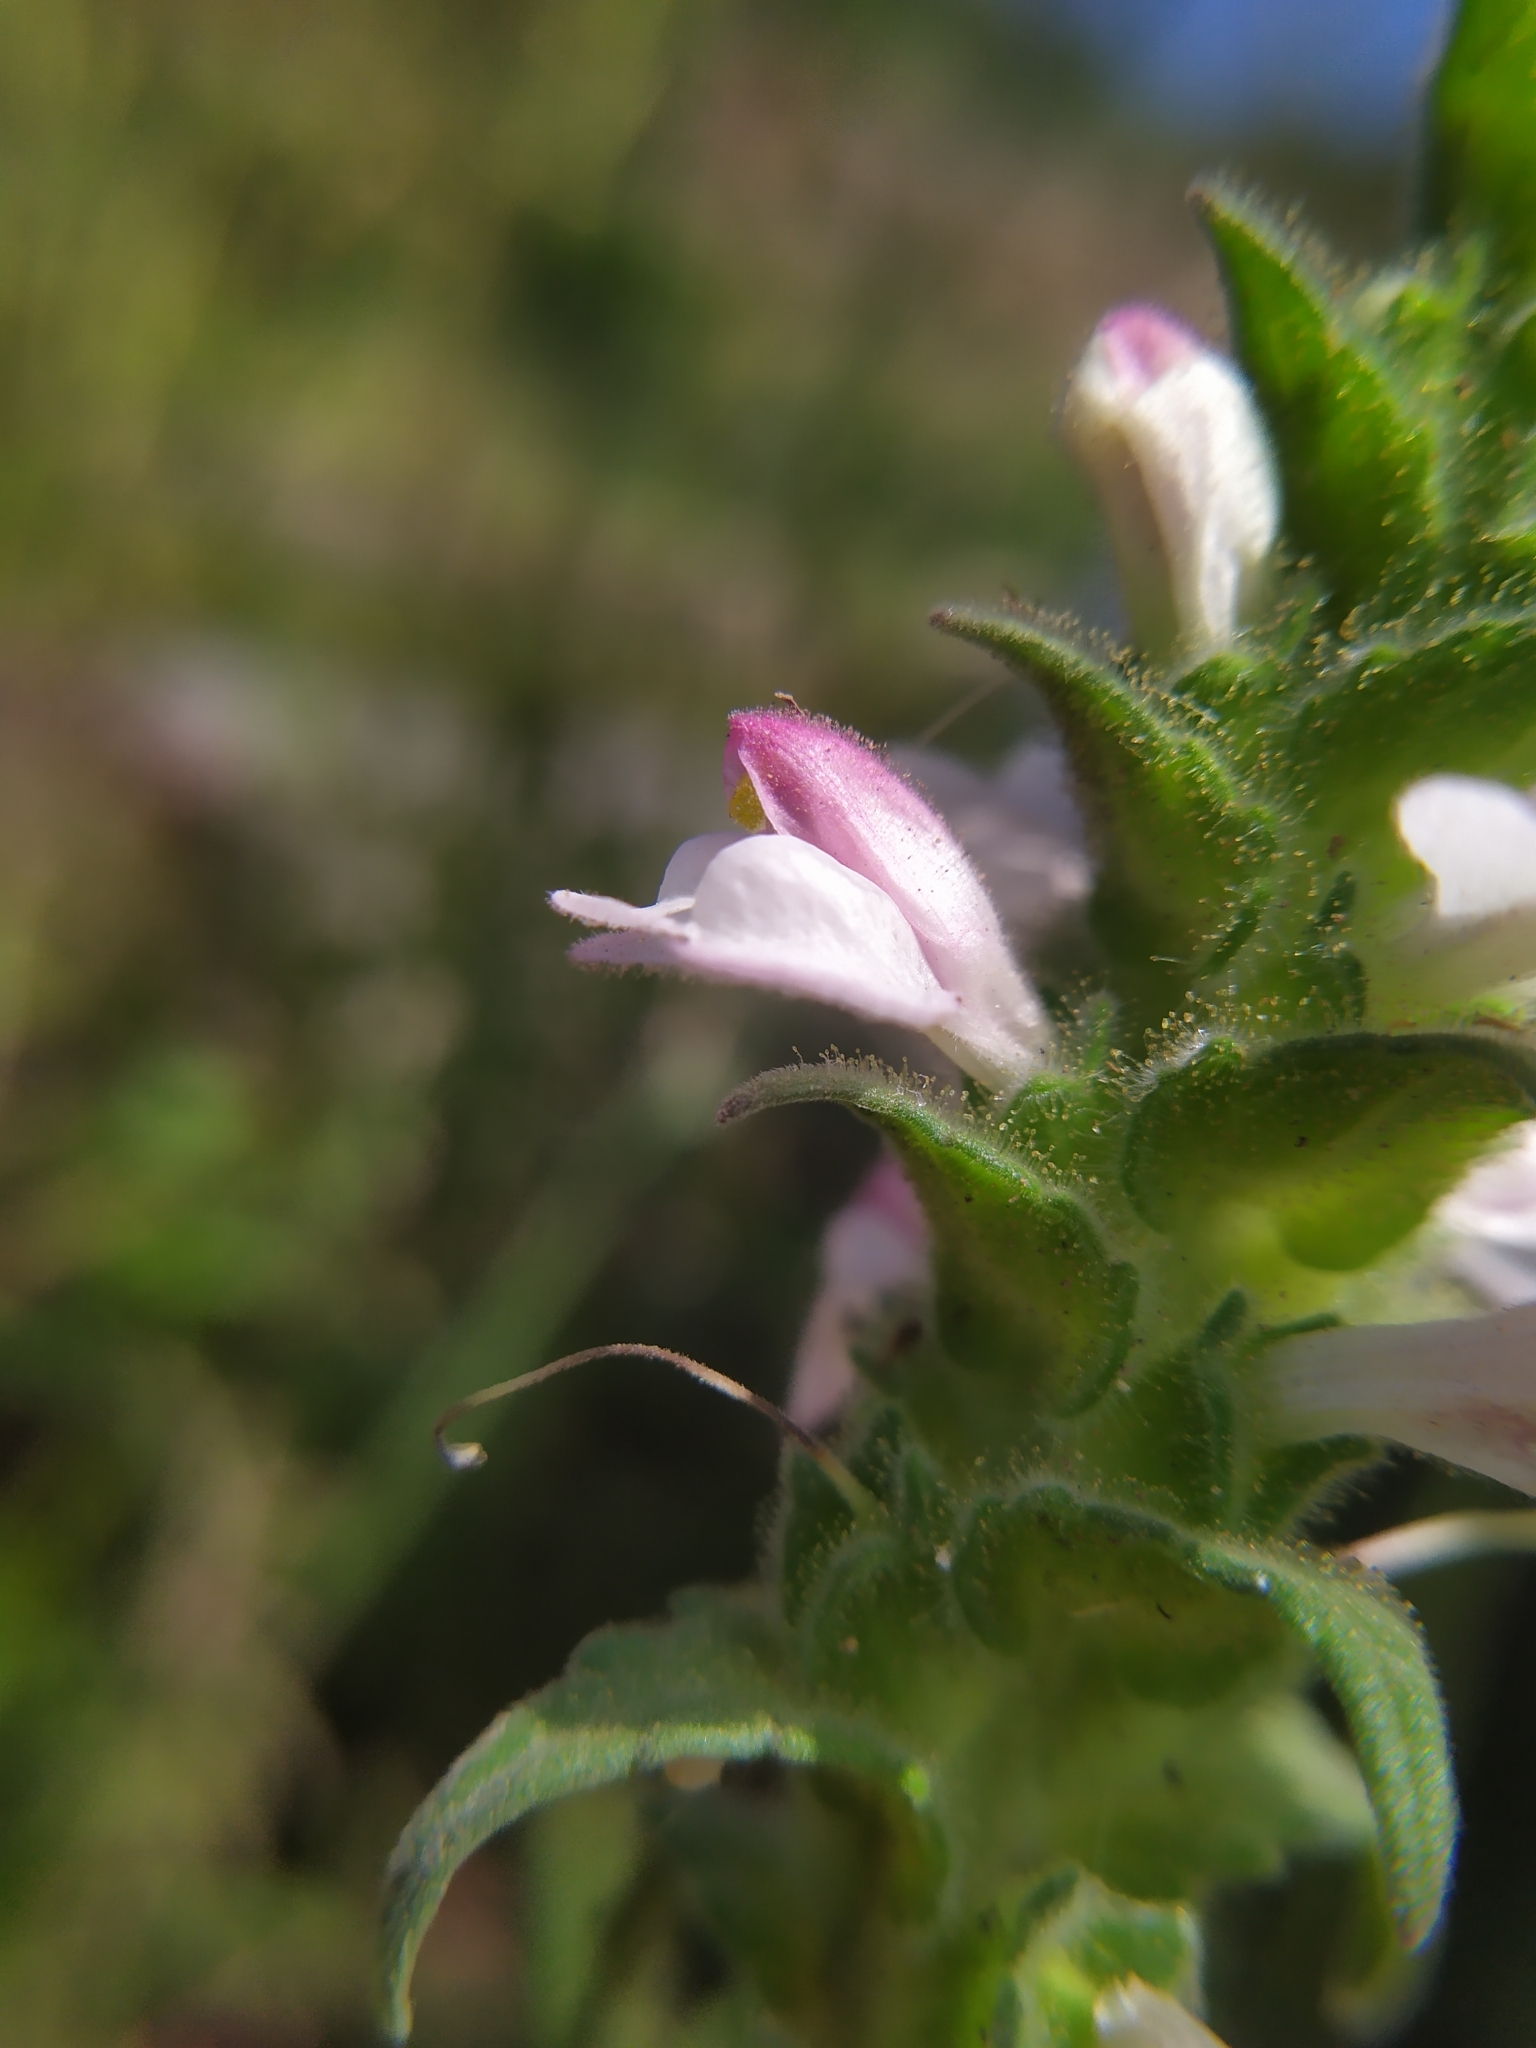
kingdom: Plantae
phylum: Tracheophyta
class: Magnoliopsida
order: Lamiales
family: Orobanchaceae
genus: Bellardia
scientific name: Bellardia trixago
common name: Mediterranean lineseed
